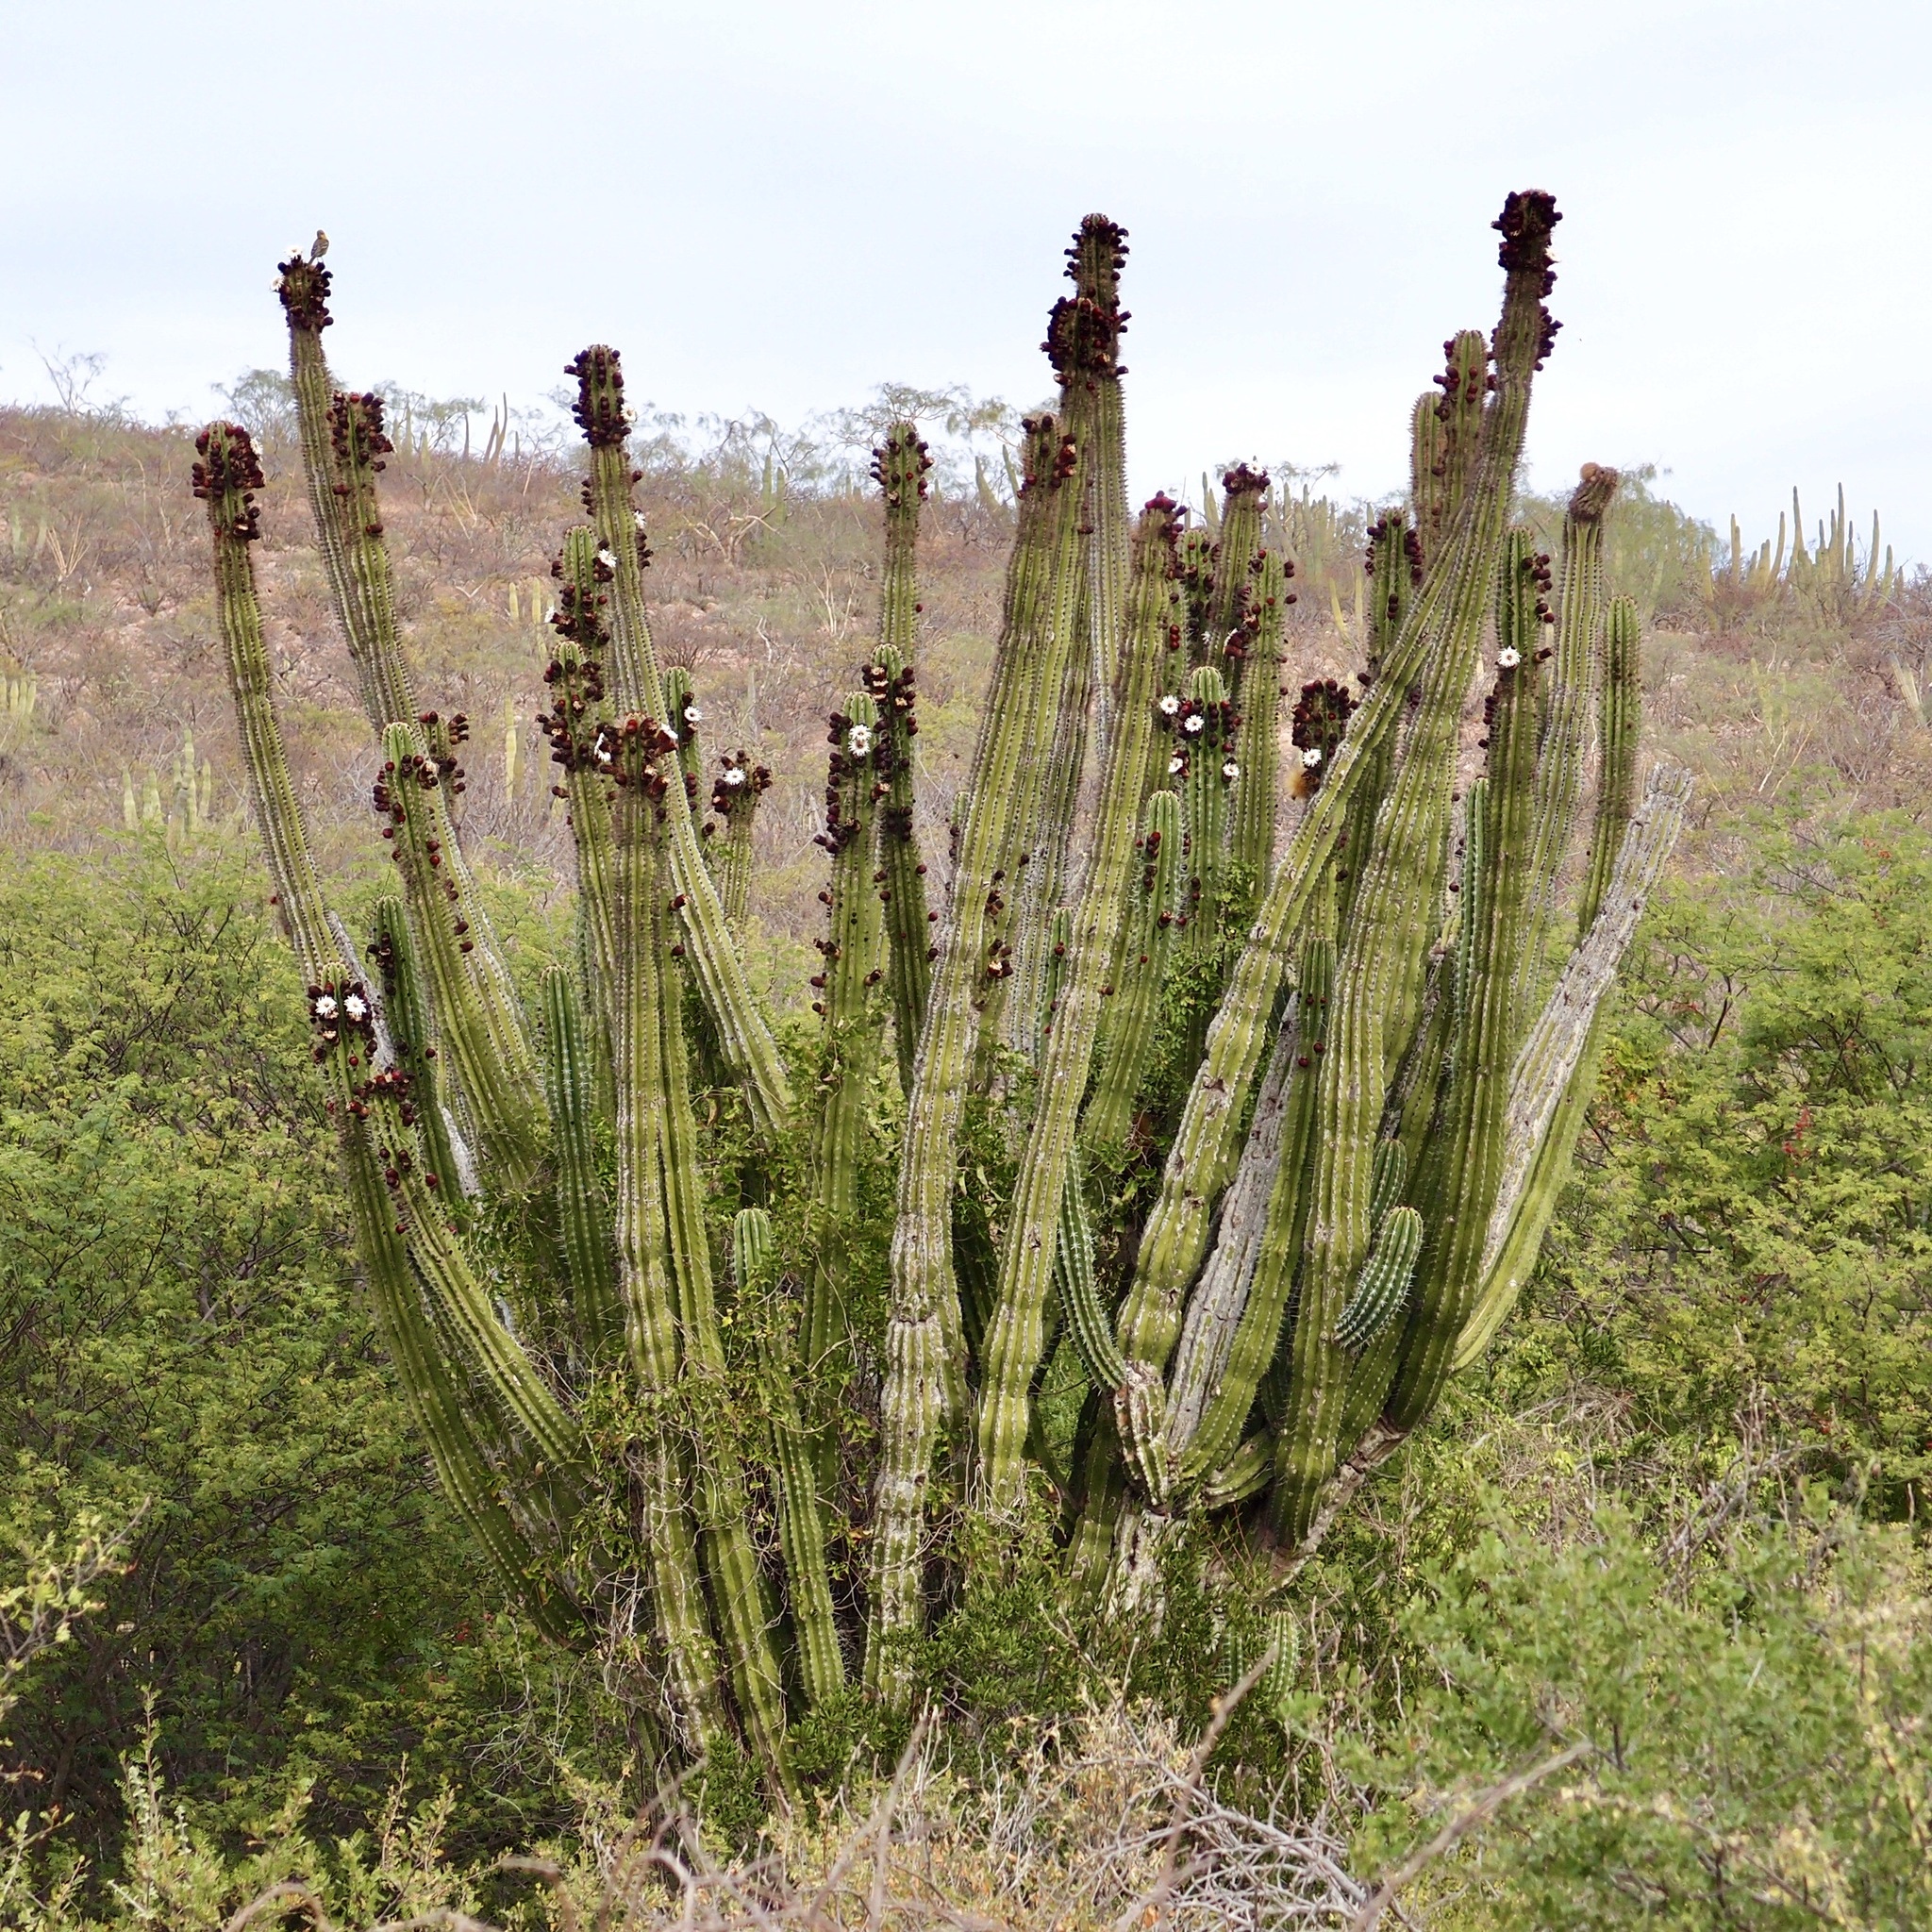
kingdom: Plantae
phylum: Tracheophyta
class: Magnoliopsida
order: Caryophyllales
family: Cactaceae
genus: Pachycereus
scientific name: Pachycereus pecten-aboriginum
